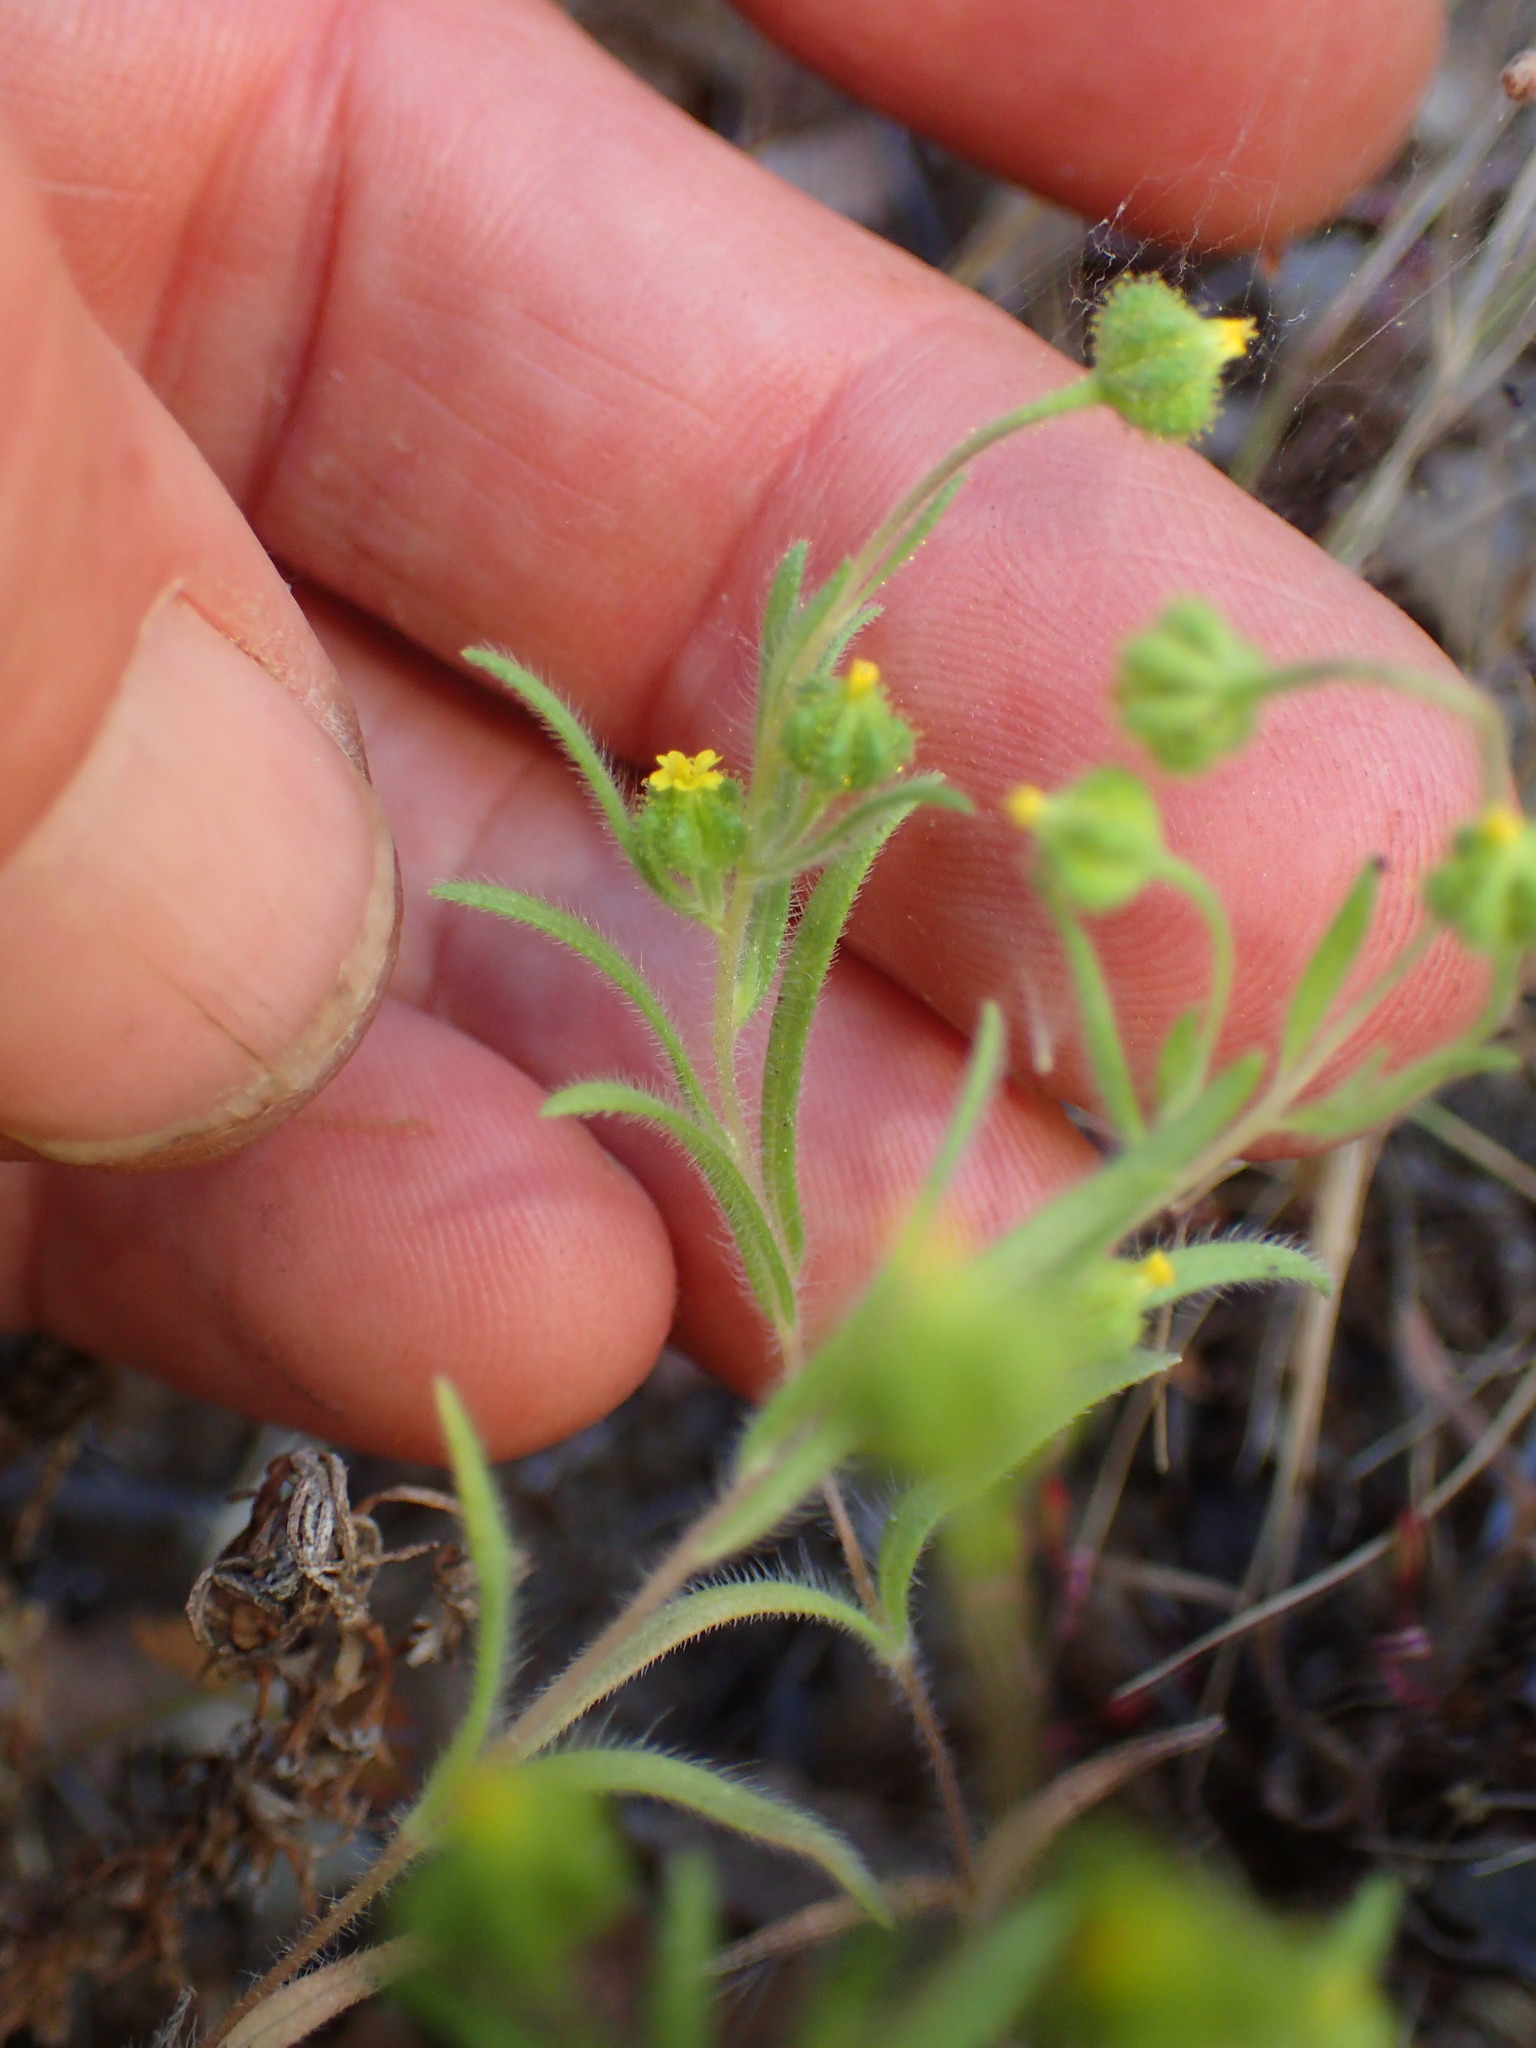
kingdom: Plantae
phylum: Tracheophyta
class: Magnoliopsida
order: Asterales
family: Asteraceae
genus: Madia
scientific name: Madia exigua
